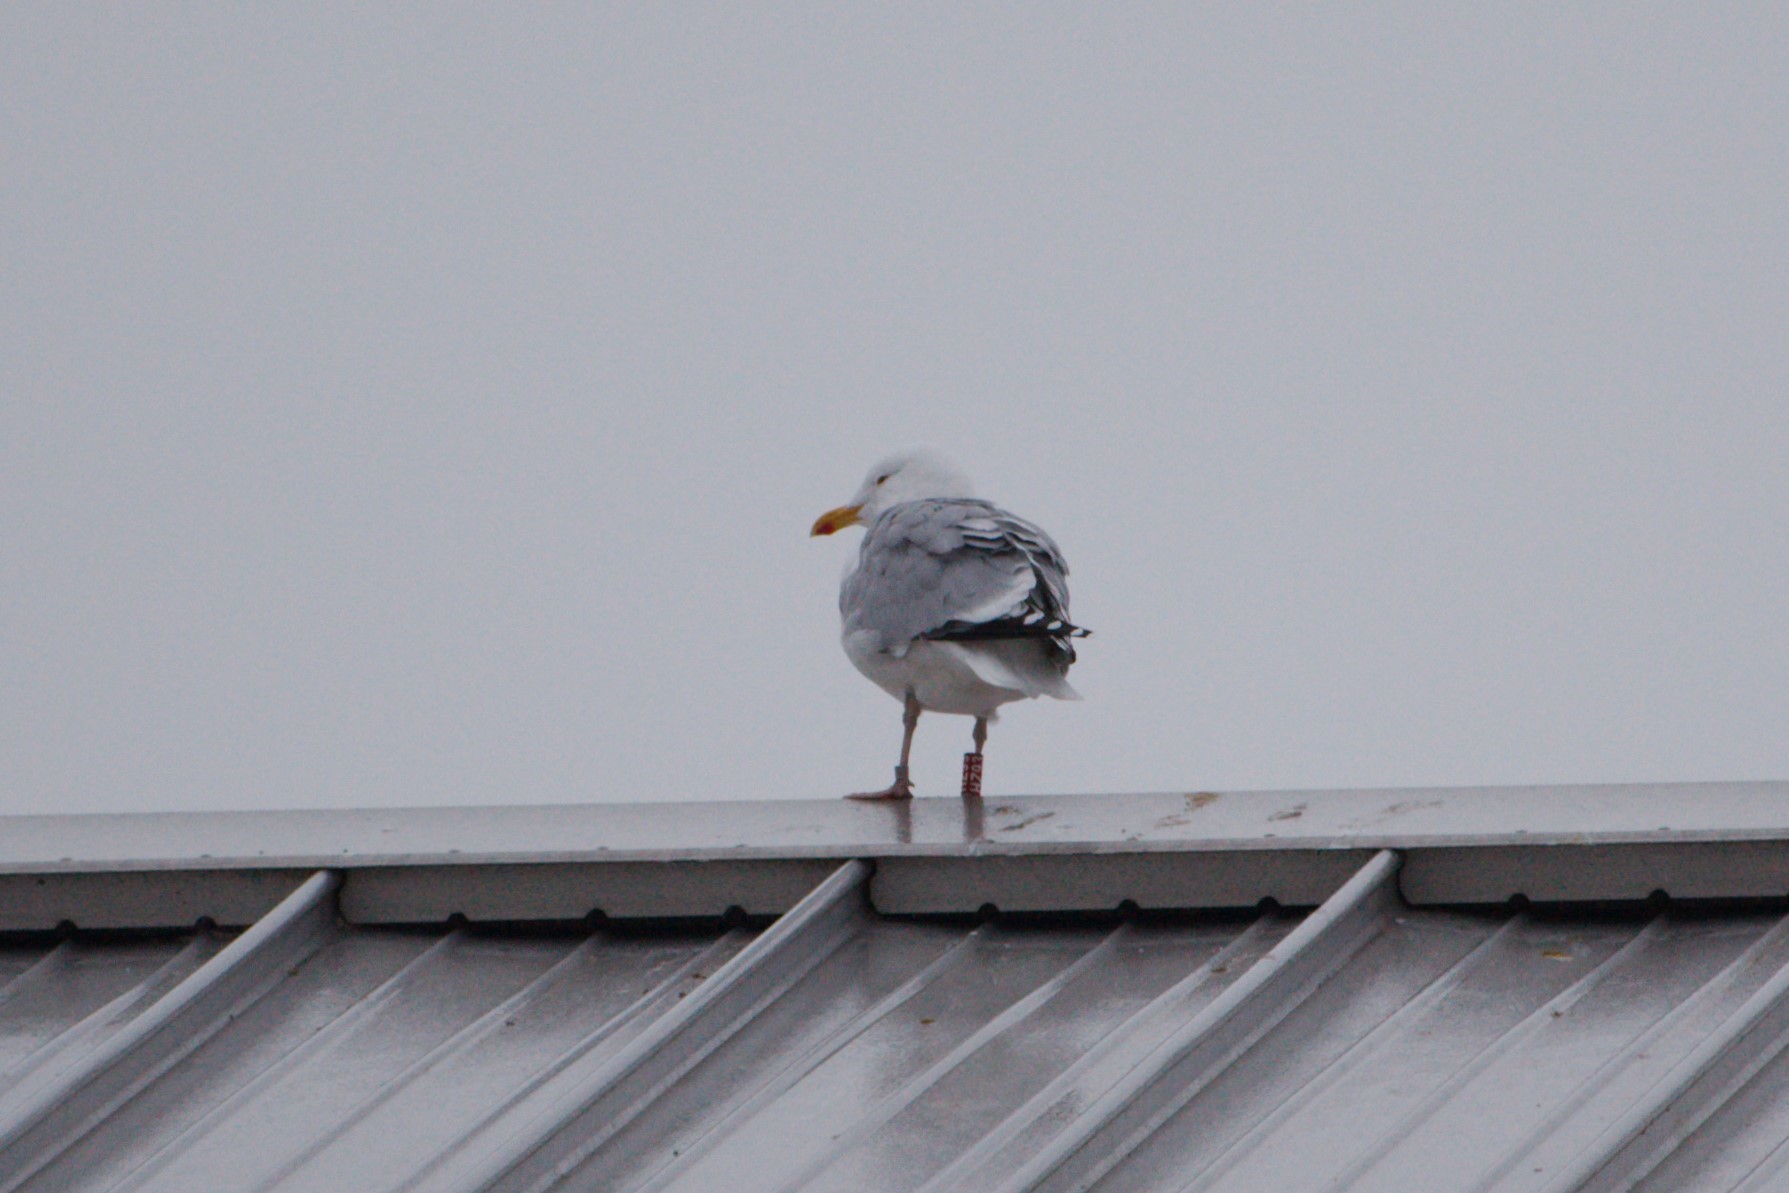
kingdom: Animalia
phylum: Chordata
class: Aves
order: Charadriiformes
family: Laridae
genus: Larus
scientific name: Larus argentatus
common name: Herring gull
